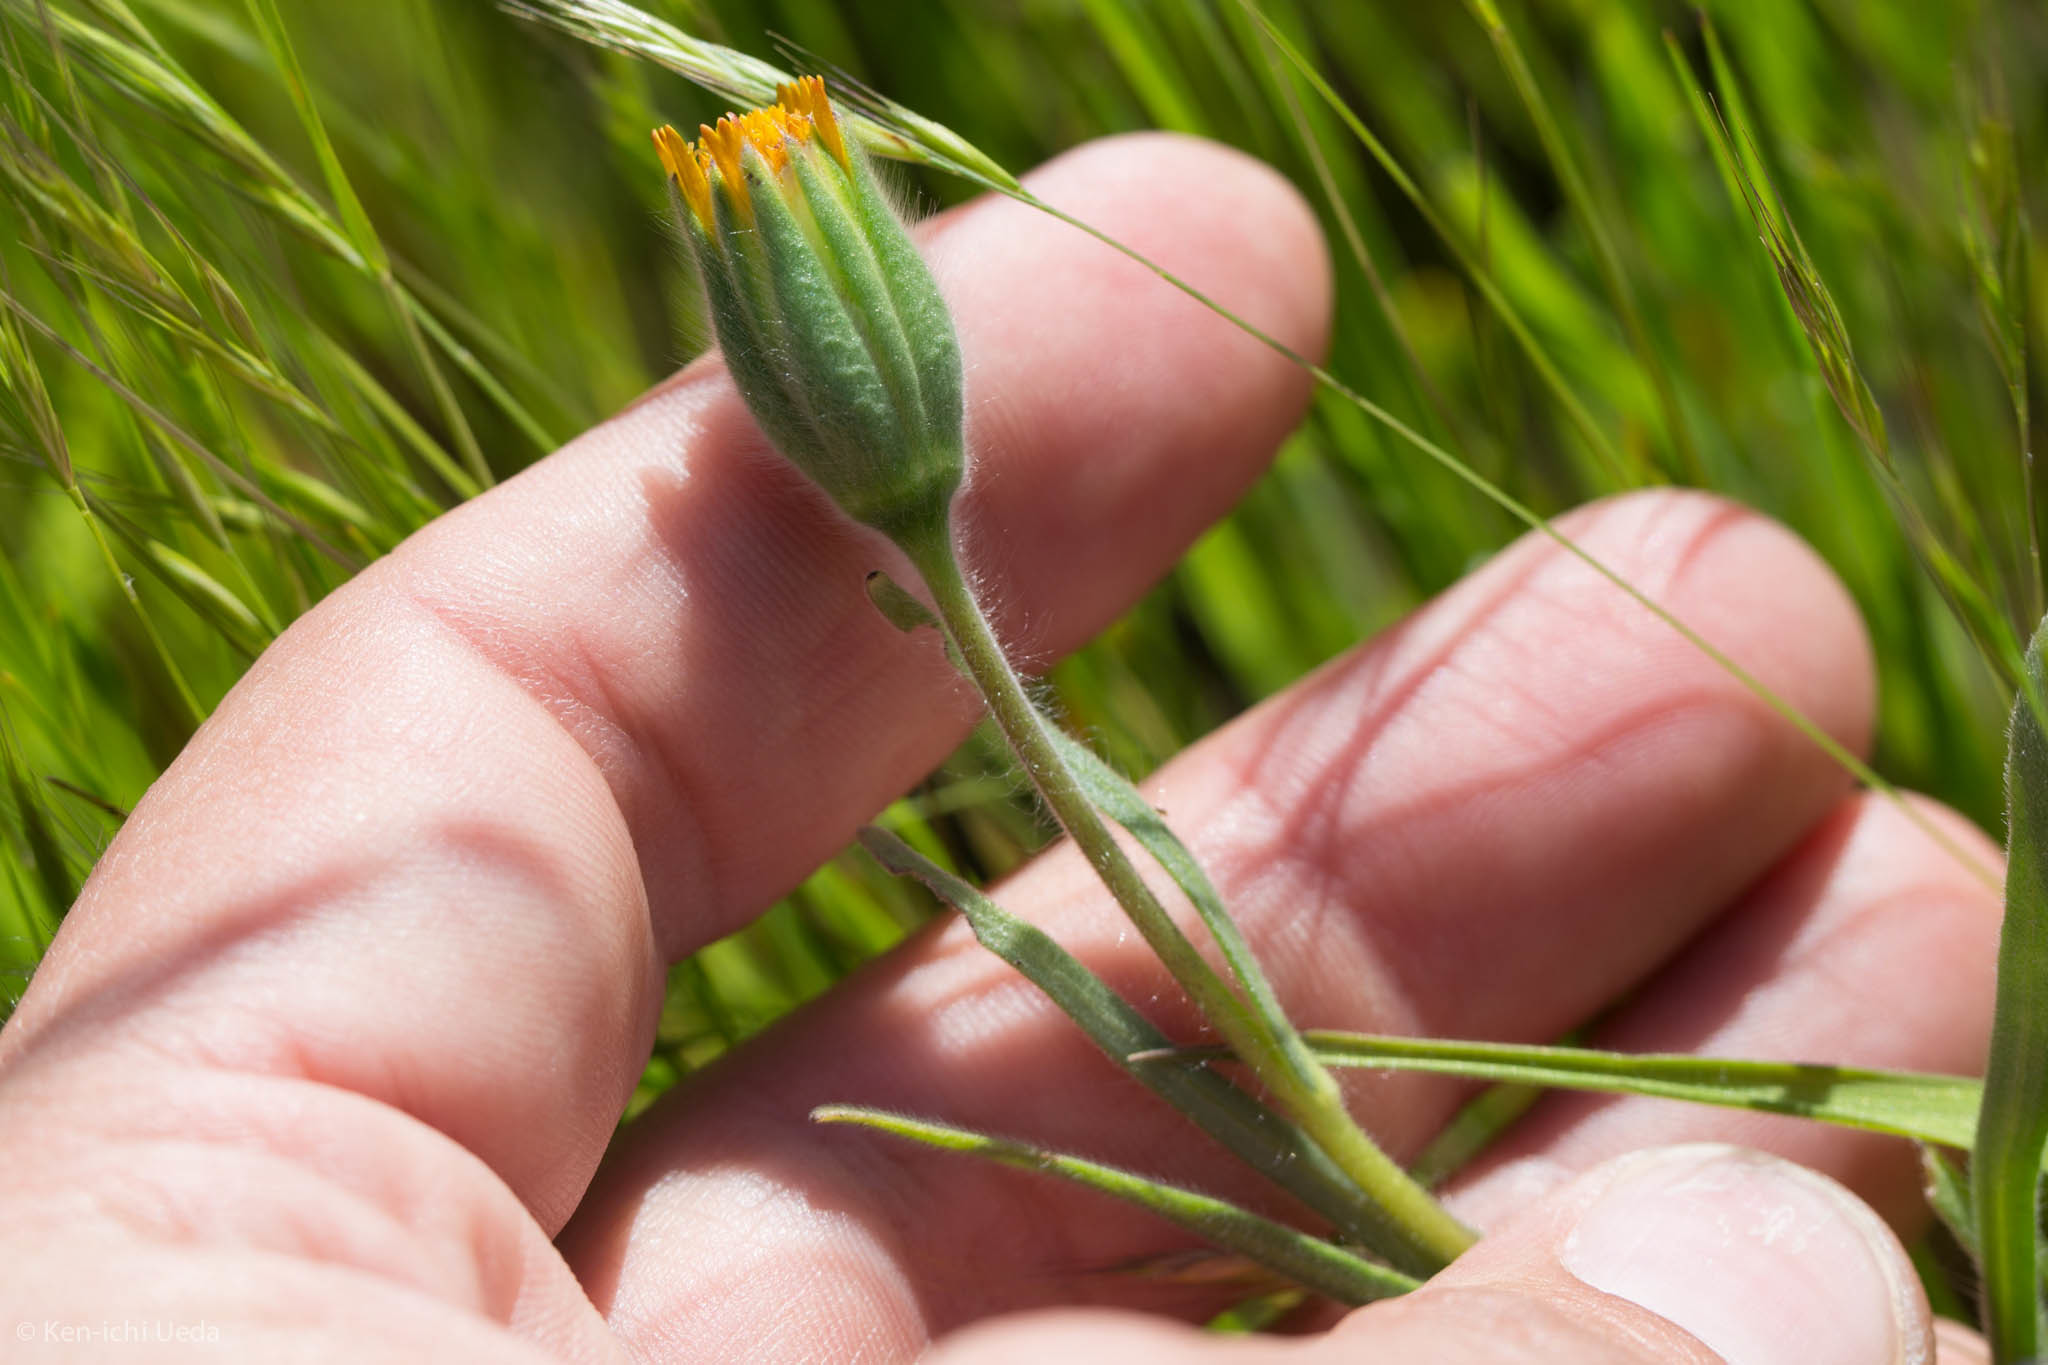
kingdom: Plantae
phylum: Tracheophyta
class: Magnoliopsida
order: Asterales
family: Asteraceae
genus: Achyrachaena
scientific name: Achyrachaena mollis
